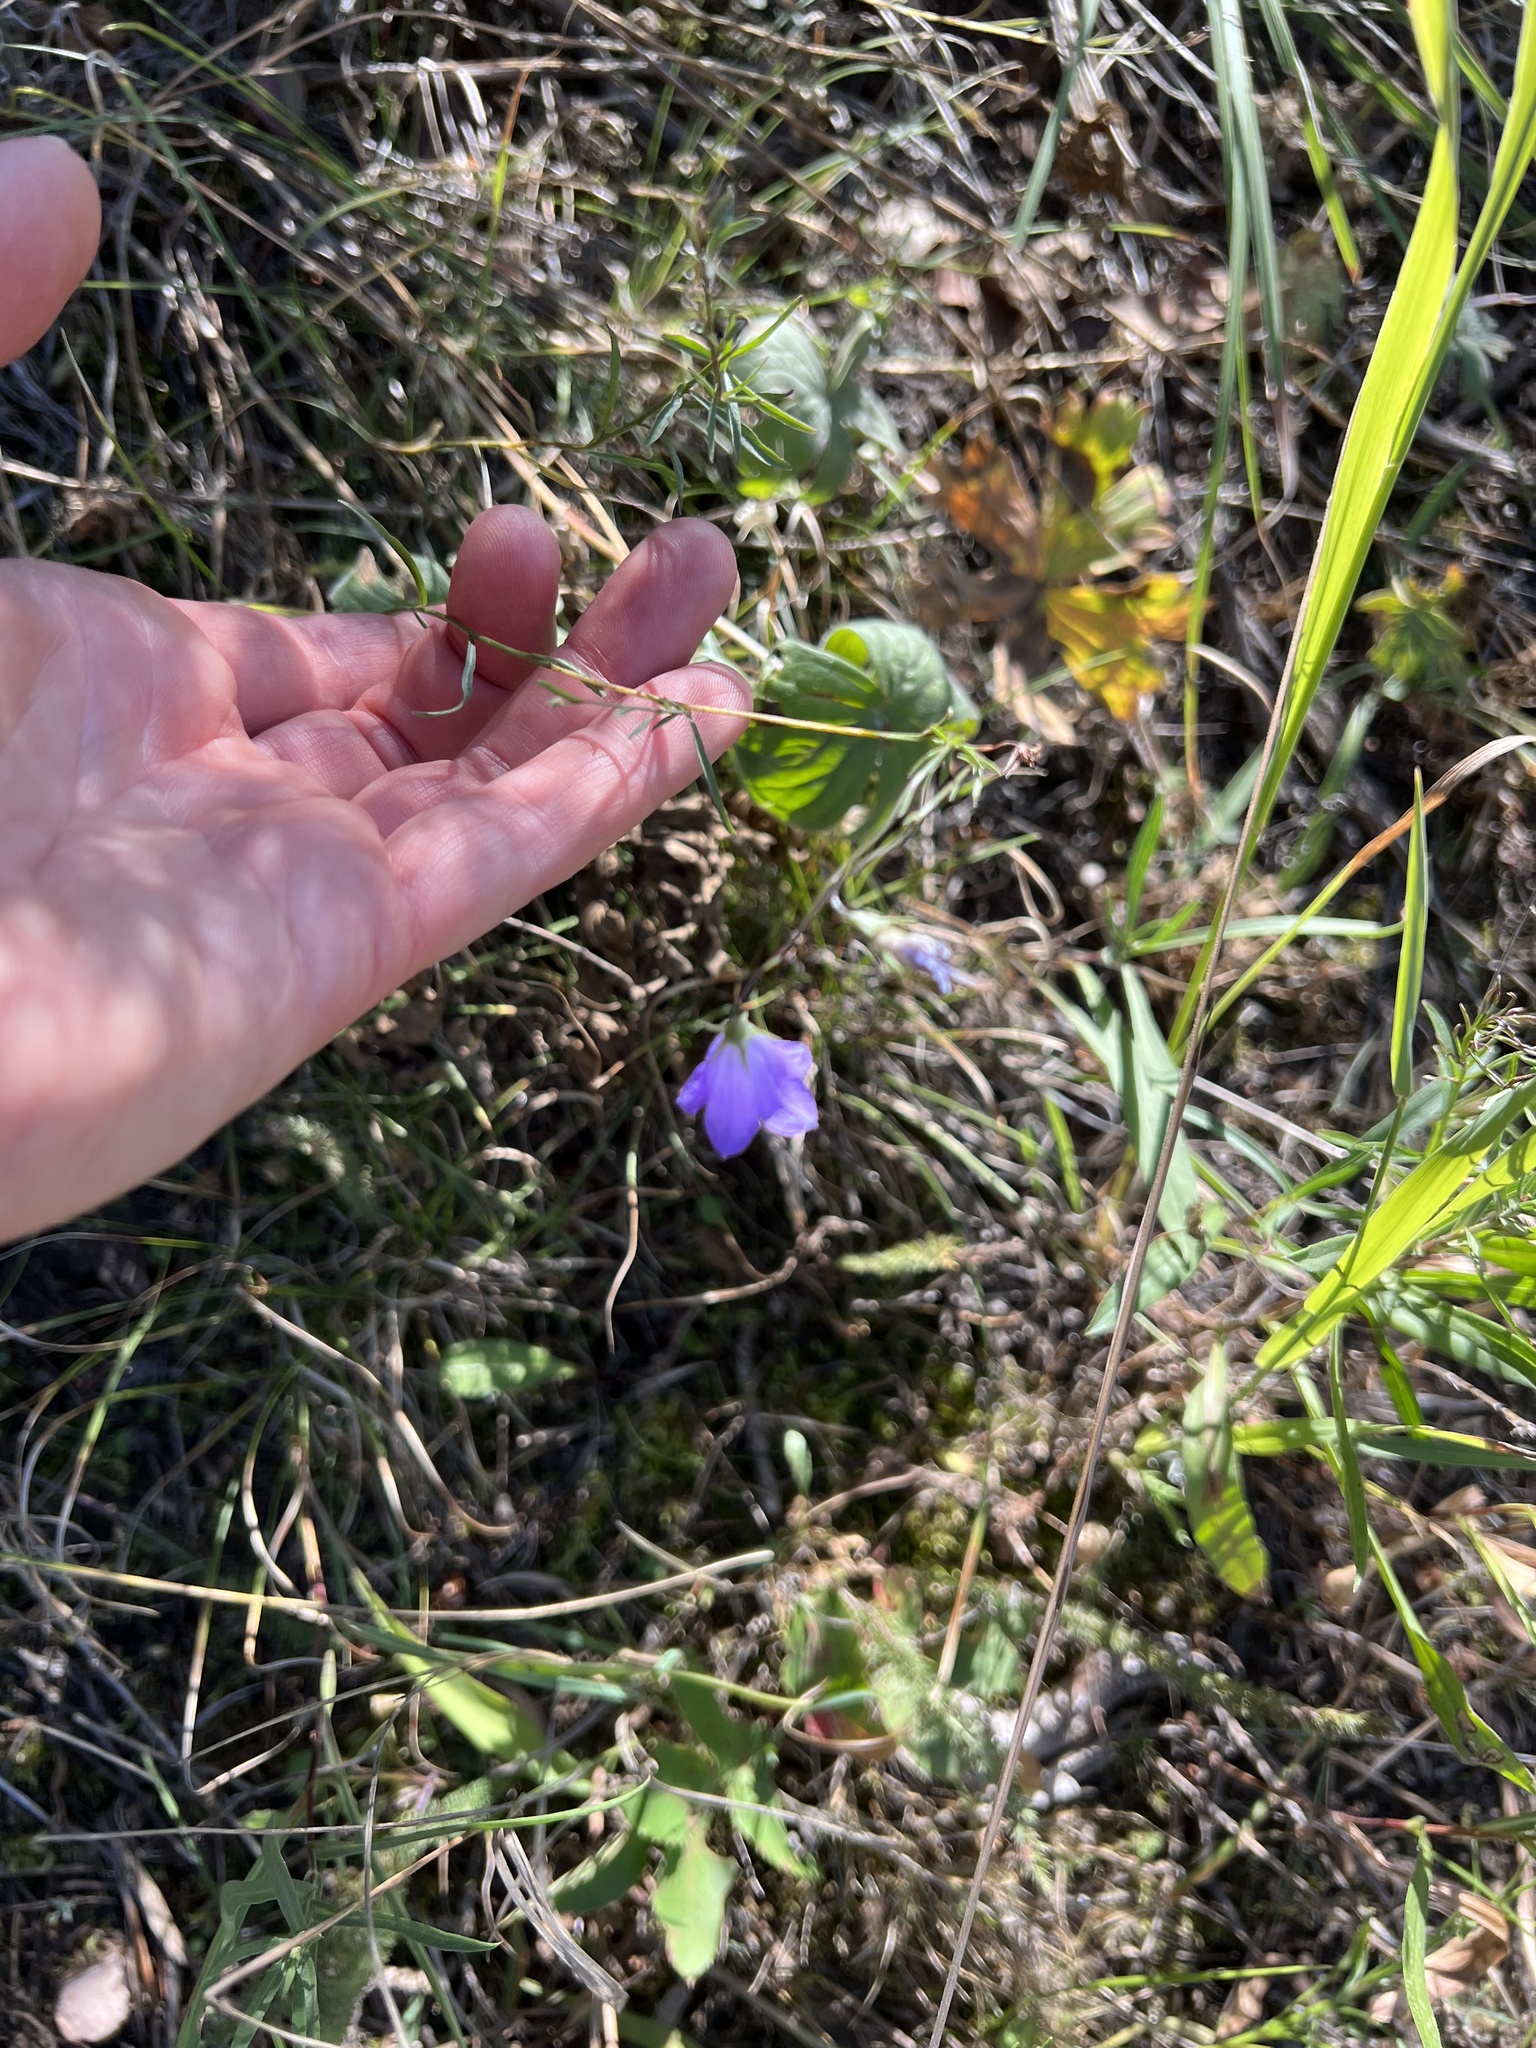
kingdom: Plantae
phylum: Tracheophyta
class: Magnoliopsida
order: Asterales
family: Campanulaceae
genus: Campanula
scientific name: Campanula
